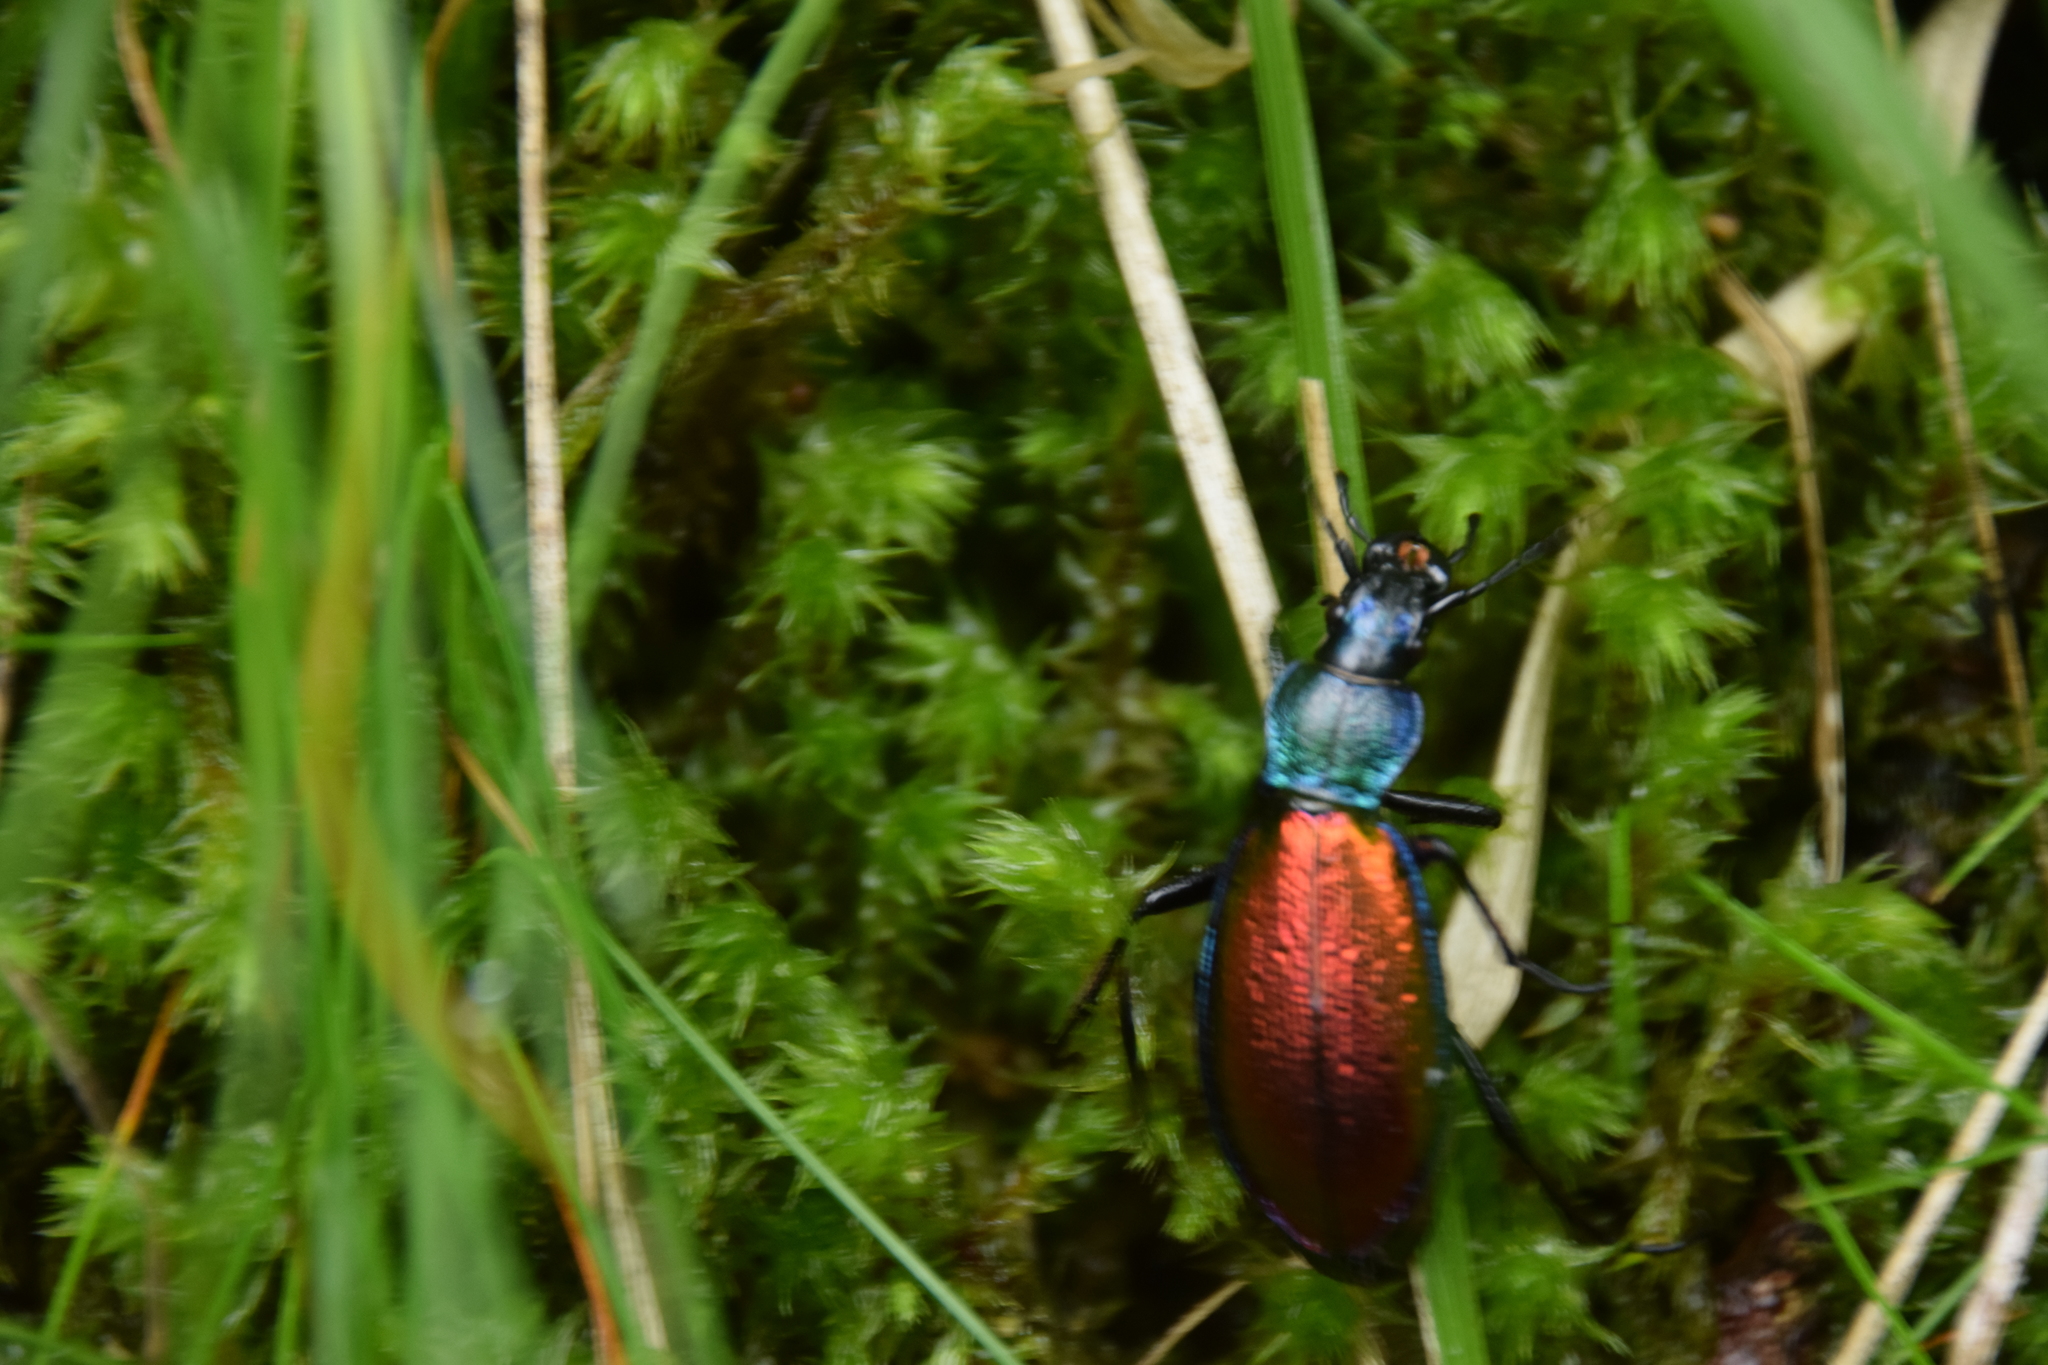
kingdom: Animalia
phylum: Arthropoda
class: Insecta
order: Coleoptera
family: Carabidae
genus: Carabus
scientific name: Carabus hispanus
